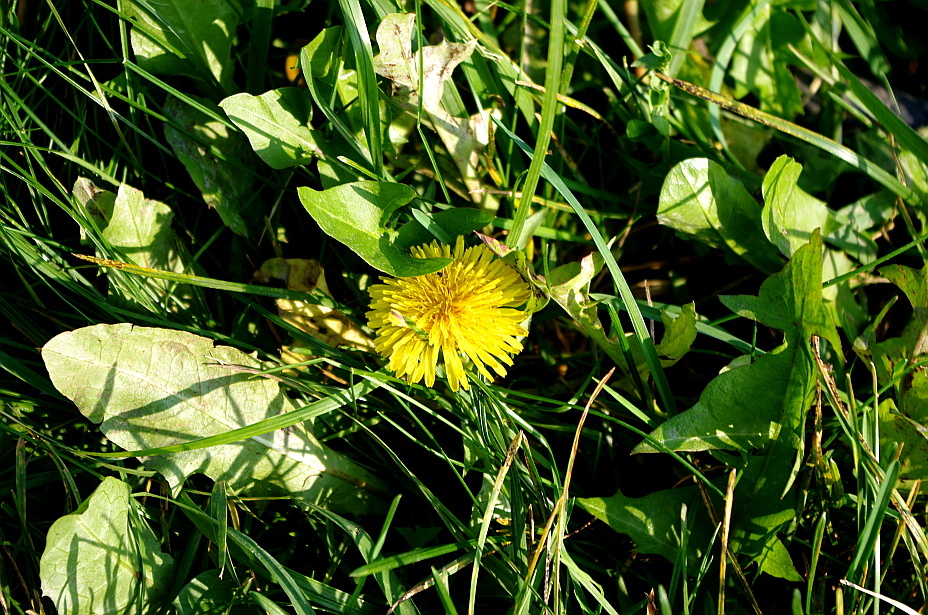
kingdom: Plantae
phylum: Tracheophyta
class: Magnoliopsida
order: Asterales
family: Asteraceae
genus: Taraxacum
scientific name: Taraxacum officinale
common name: Common dandelion
